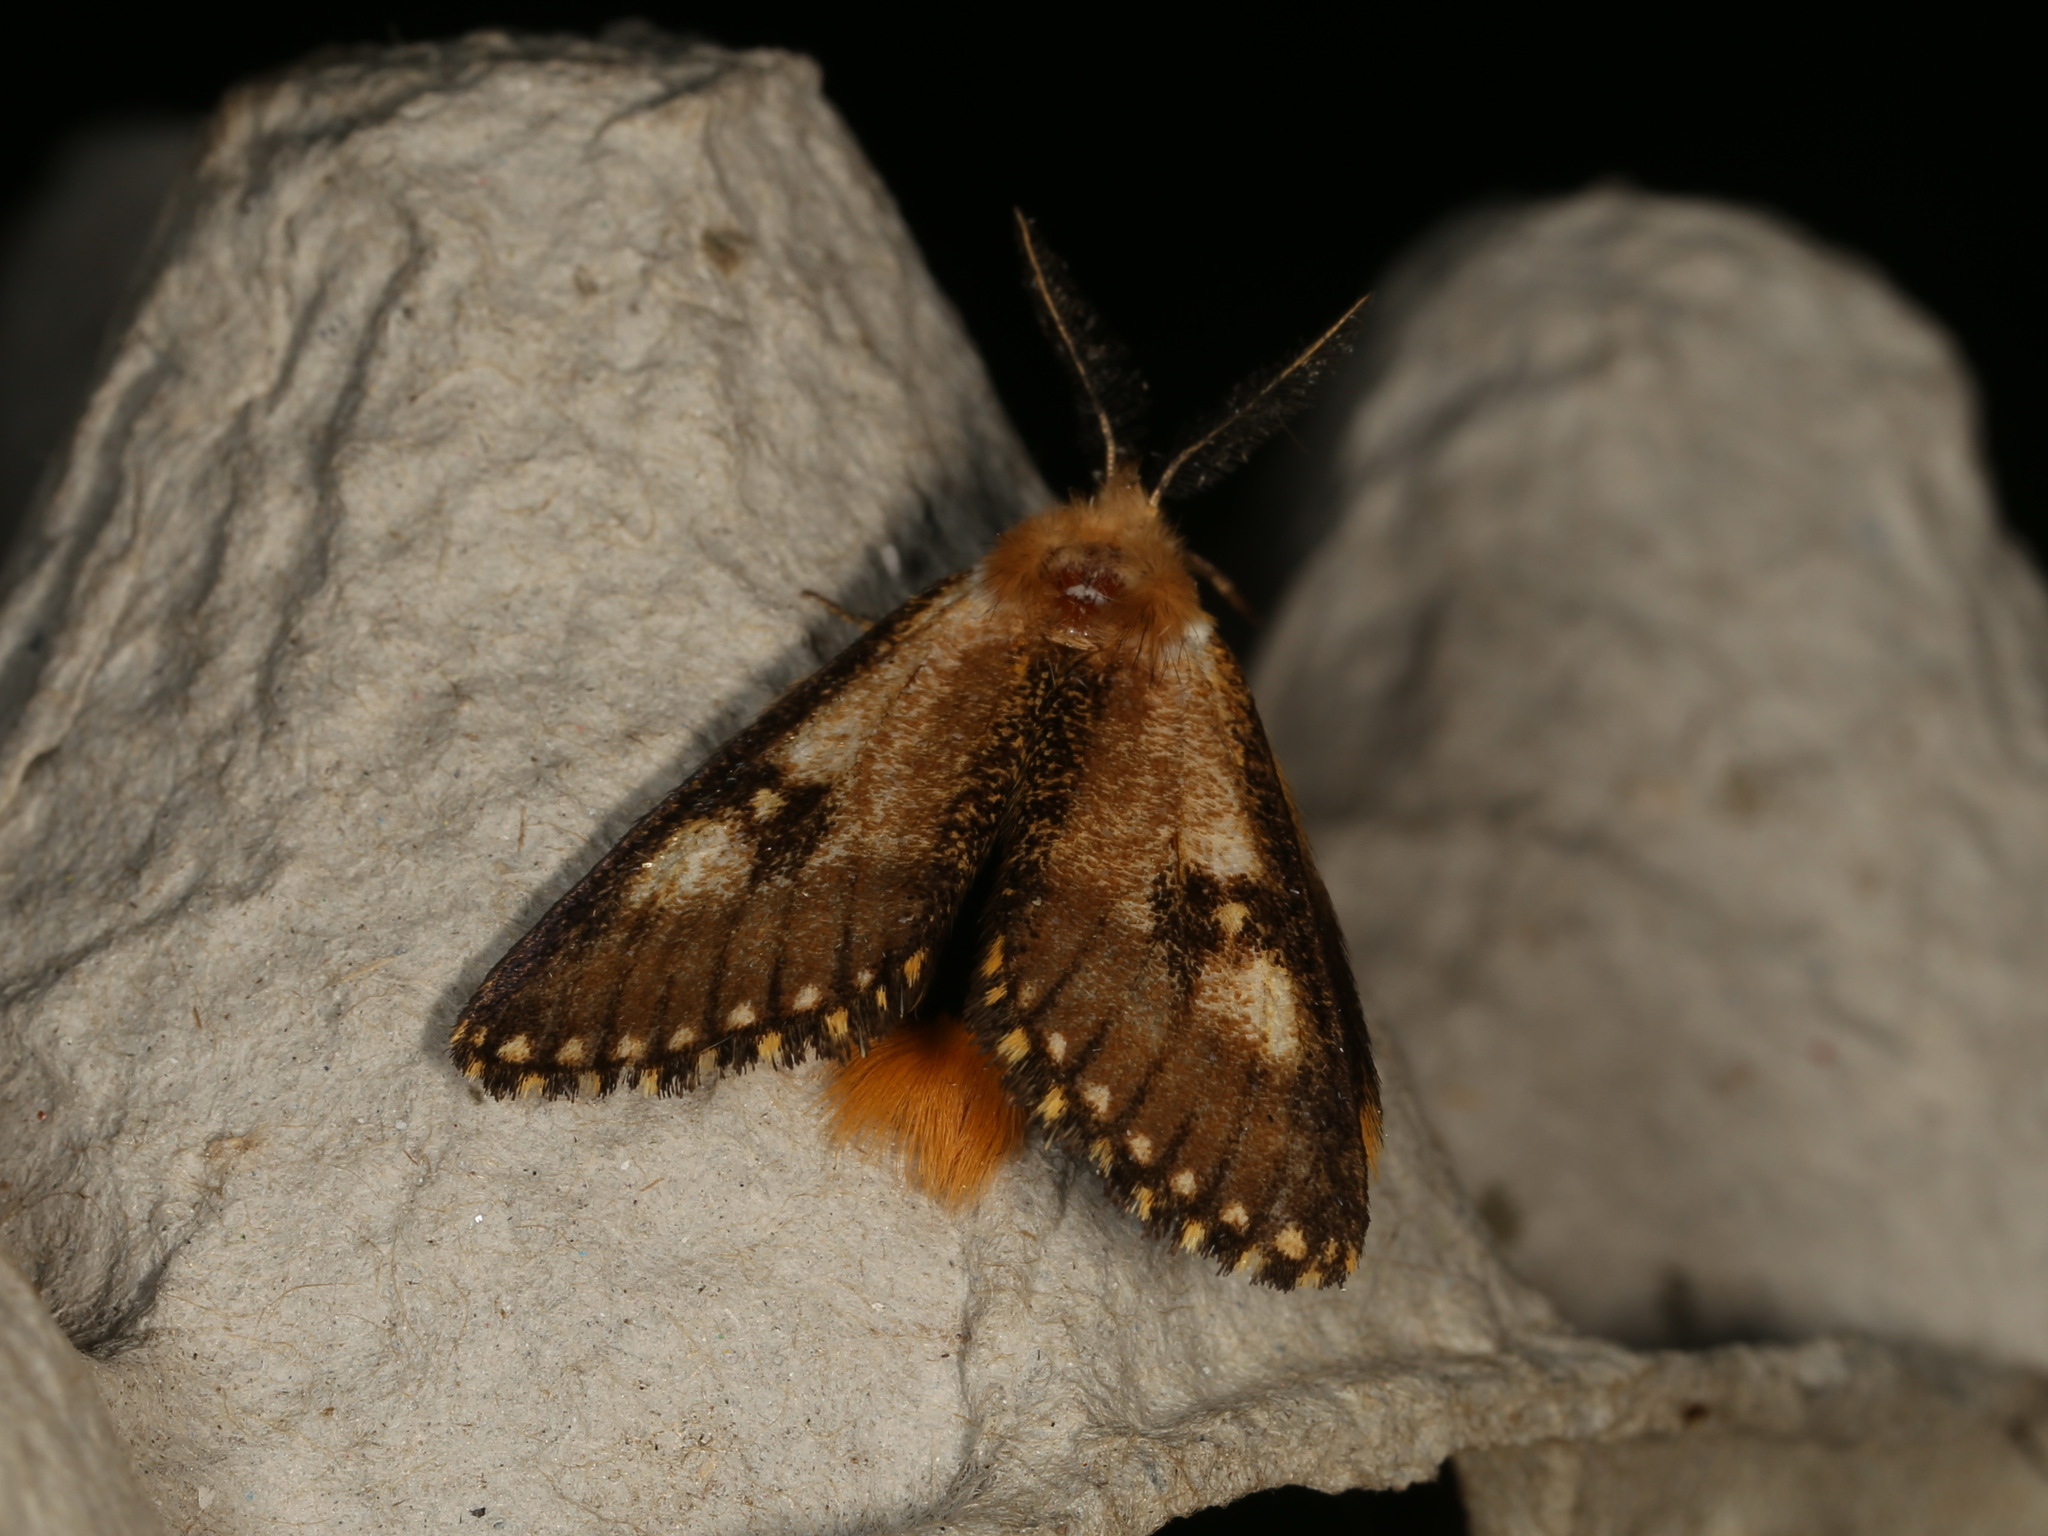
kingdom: Animalia
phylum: Arthropoda
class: Insecta
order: Lepidoptera
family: Notodontidae
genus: Epicoma
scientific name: Epicoma contristis
